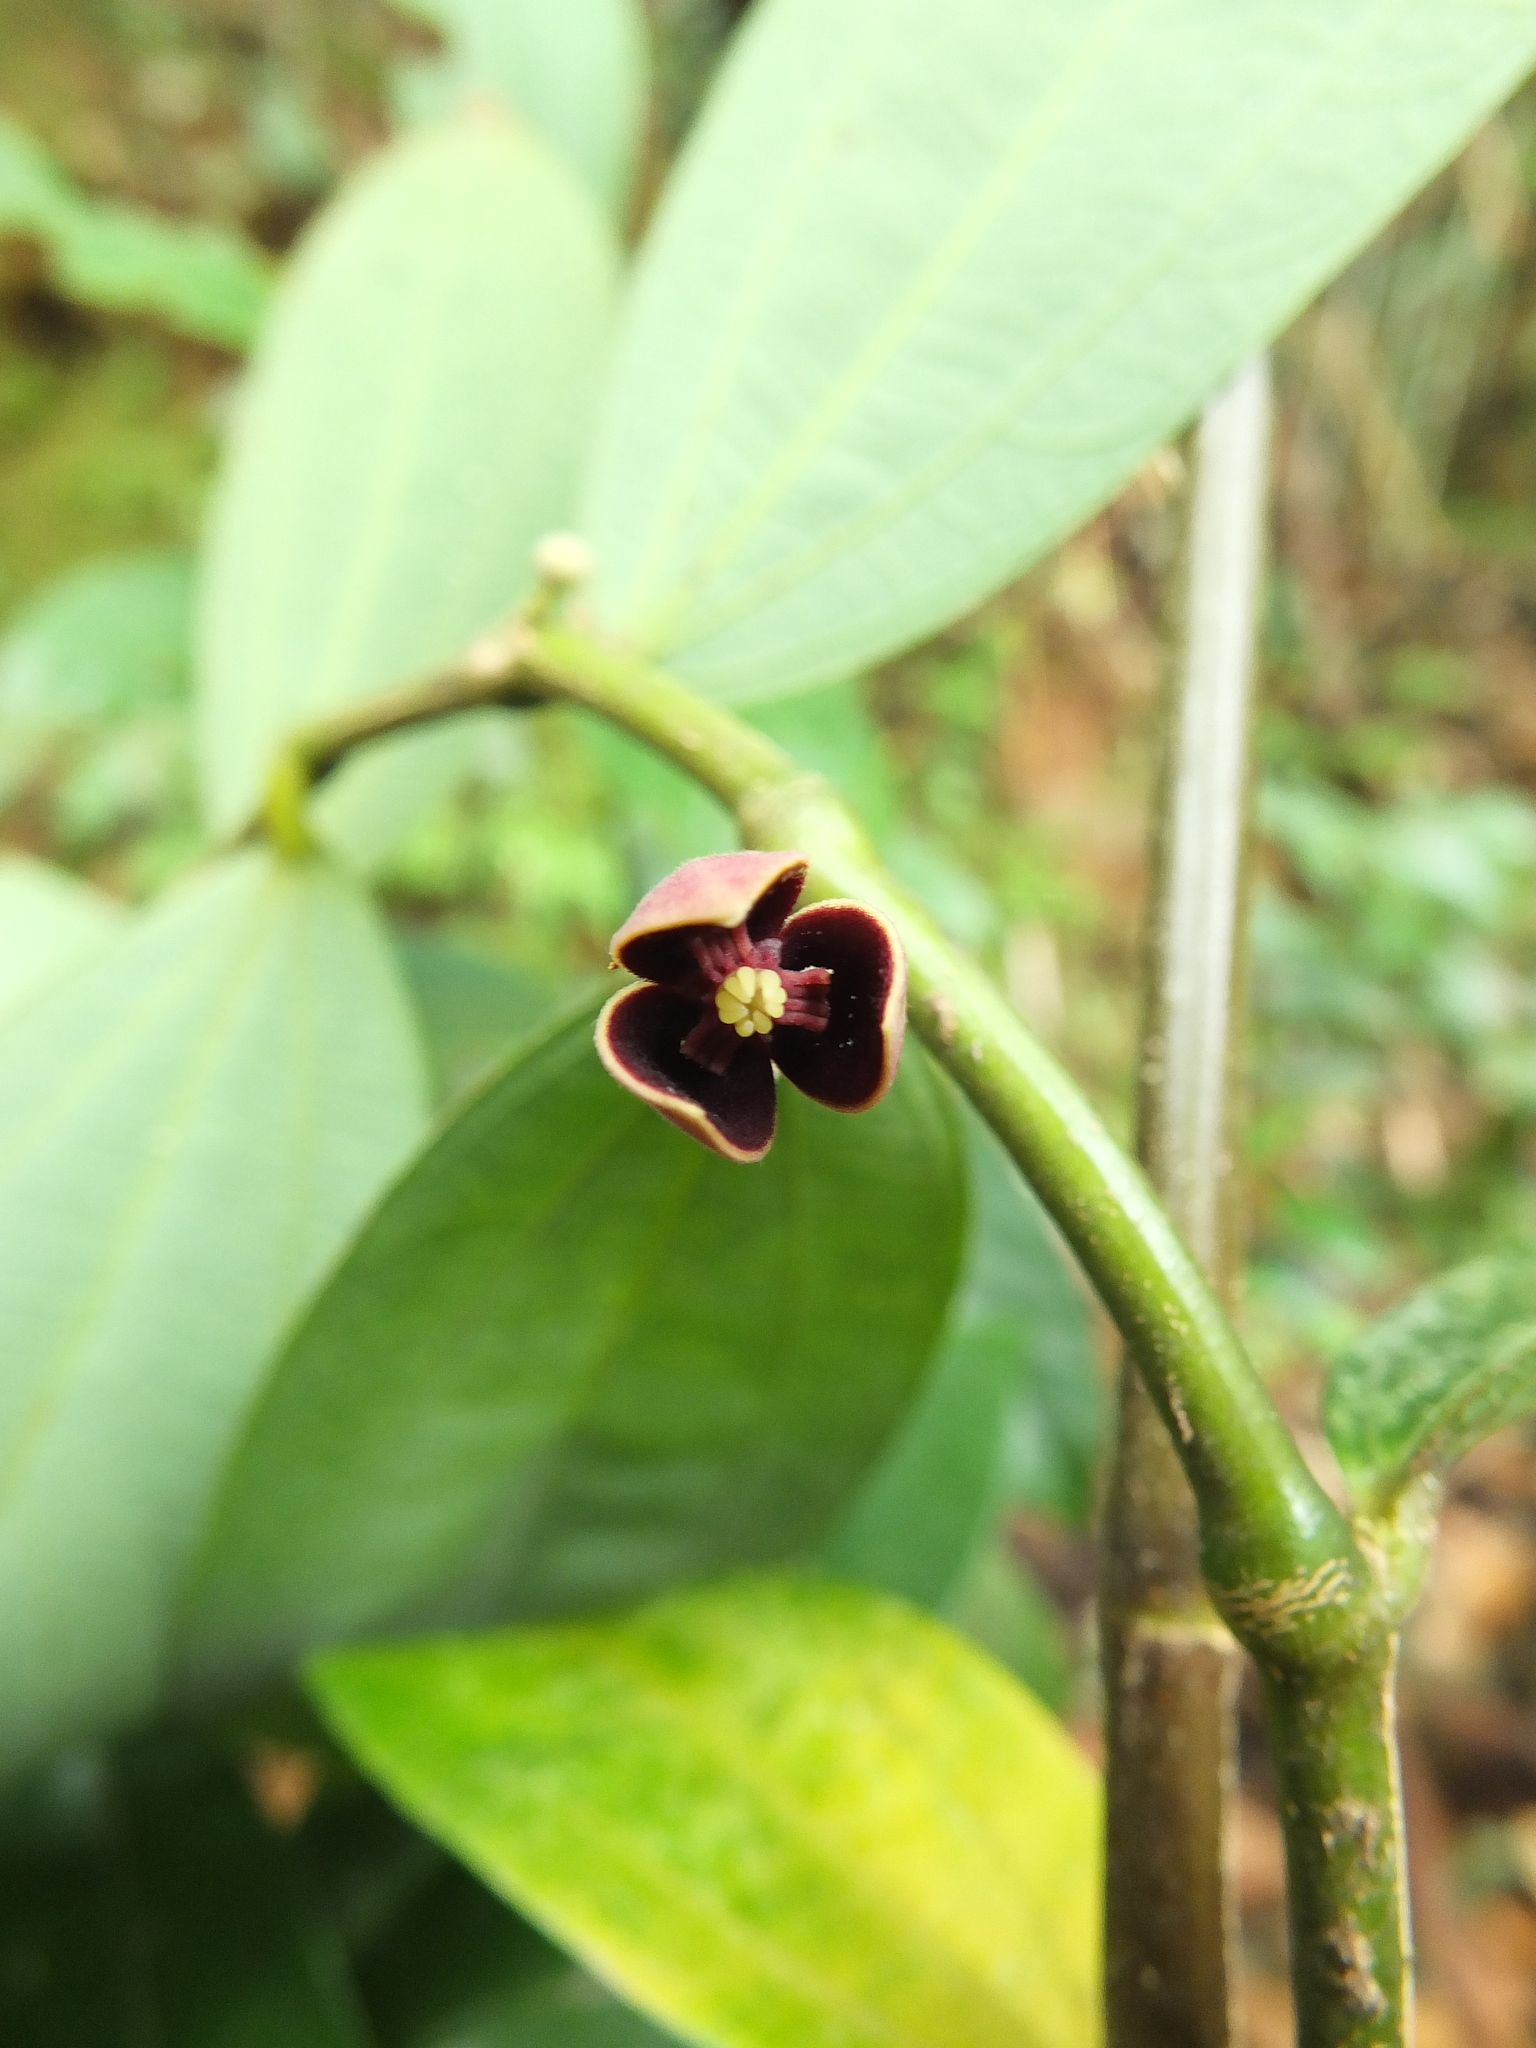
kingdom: Plantae
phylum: Tracheophyta
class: Magnoliopsida
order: Piperales
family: Aristolochiaceae
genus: Thottea
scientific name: Thottea siliquosa
